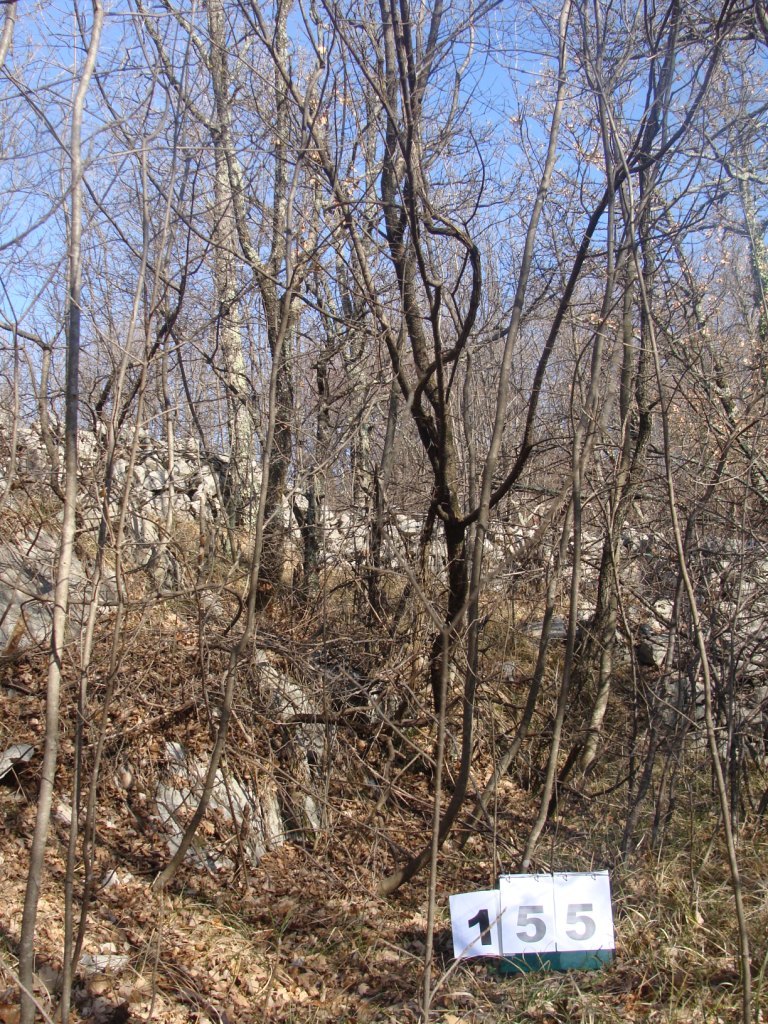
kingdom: Plantae
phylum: Tracheophyta
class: Magnoliopsida
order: Cornales
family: Cornaceae
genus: Cornus
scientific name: Cornus mas
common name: Cornelian-cherry
